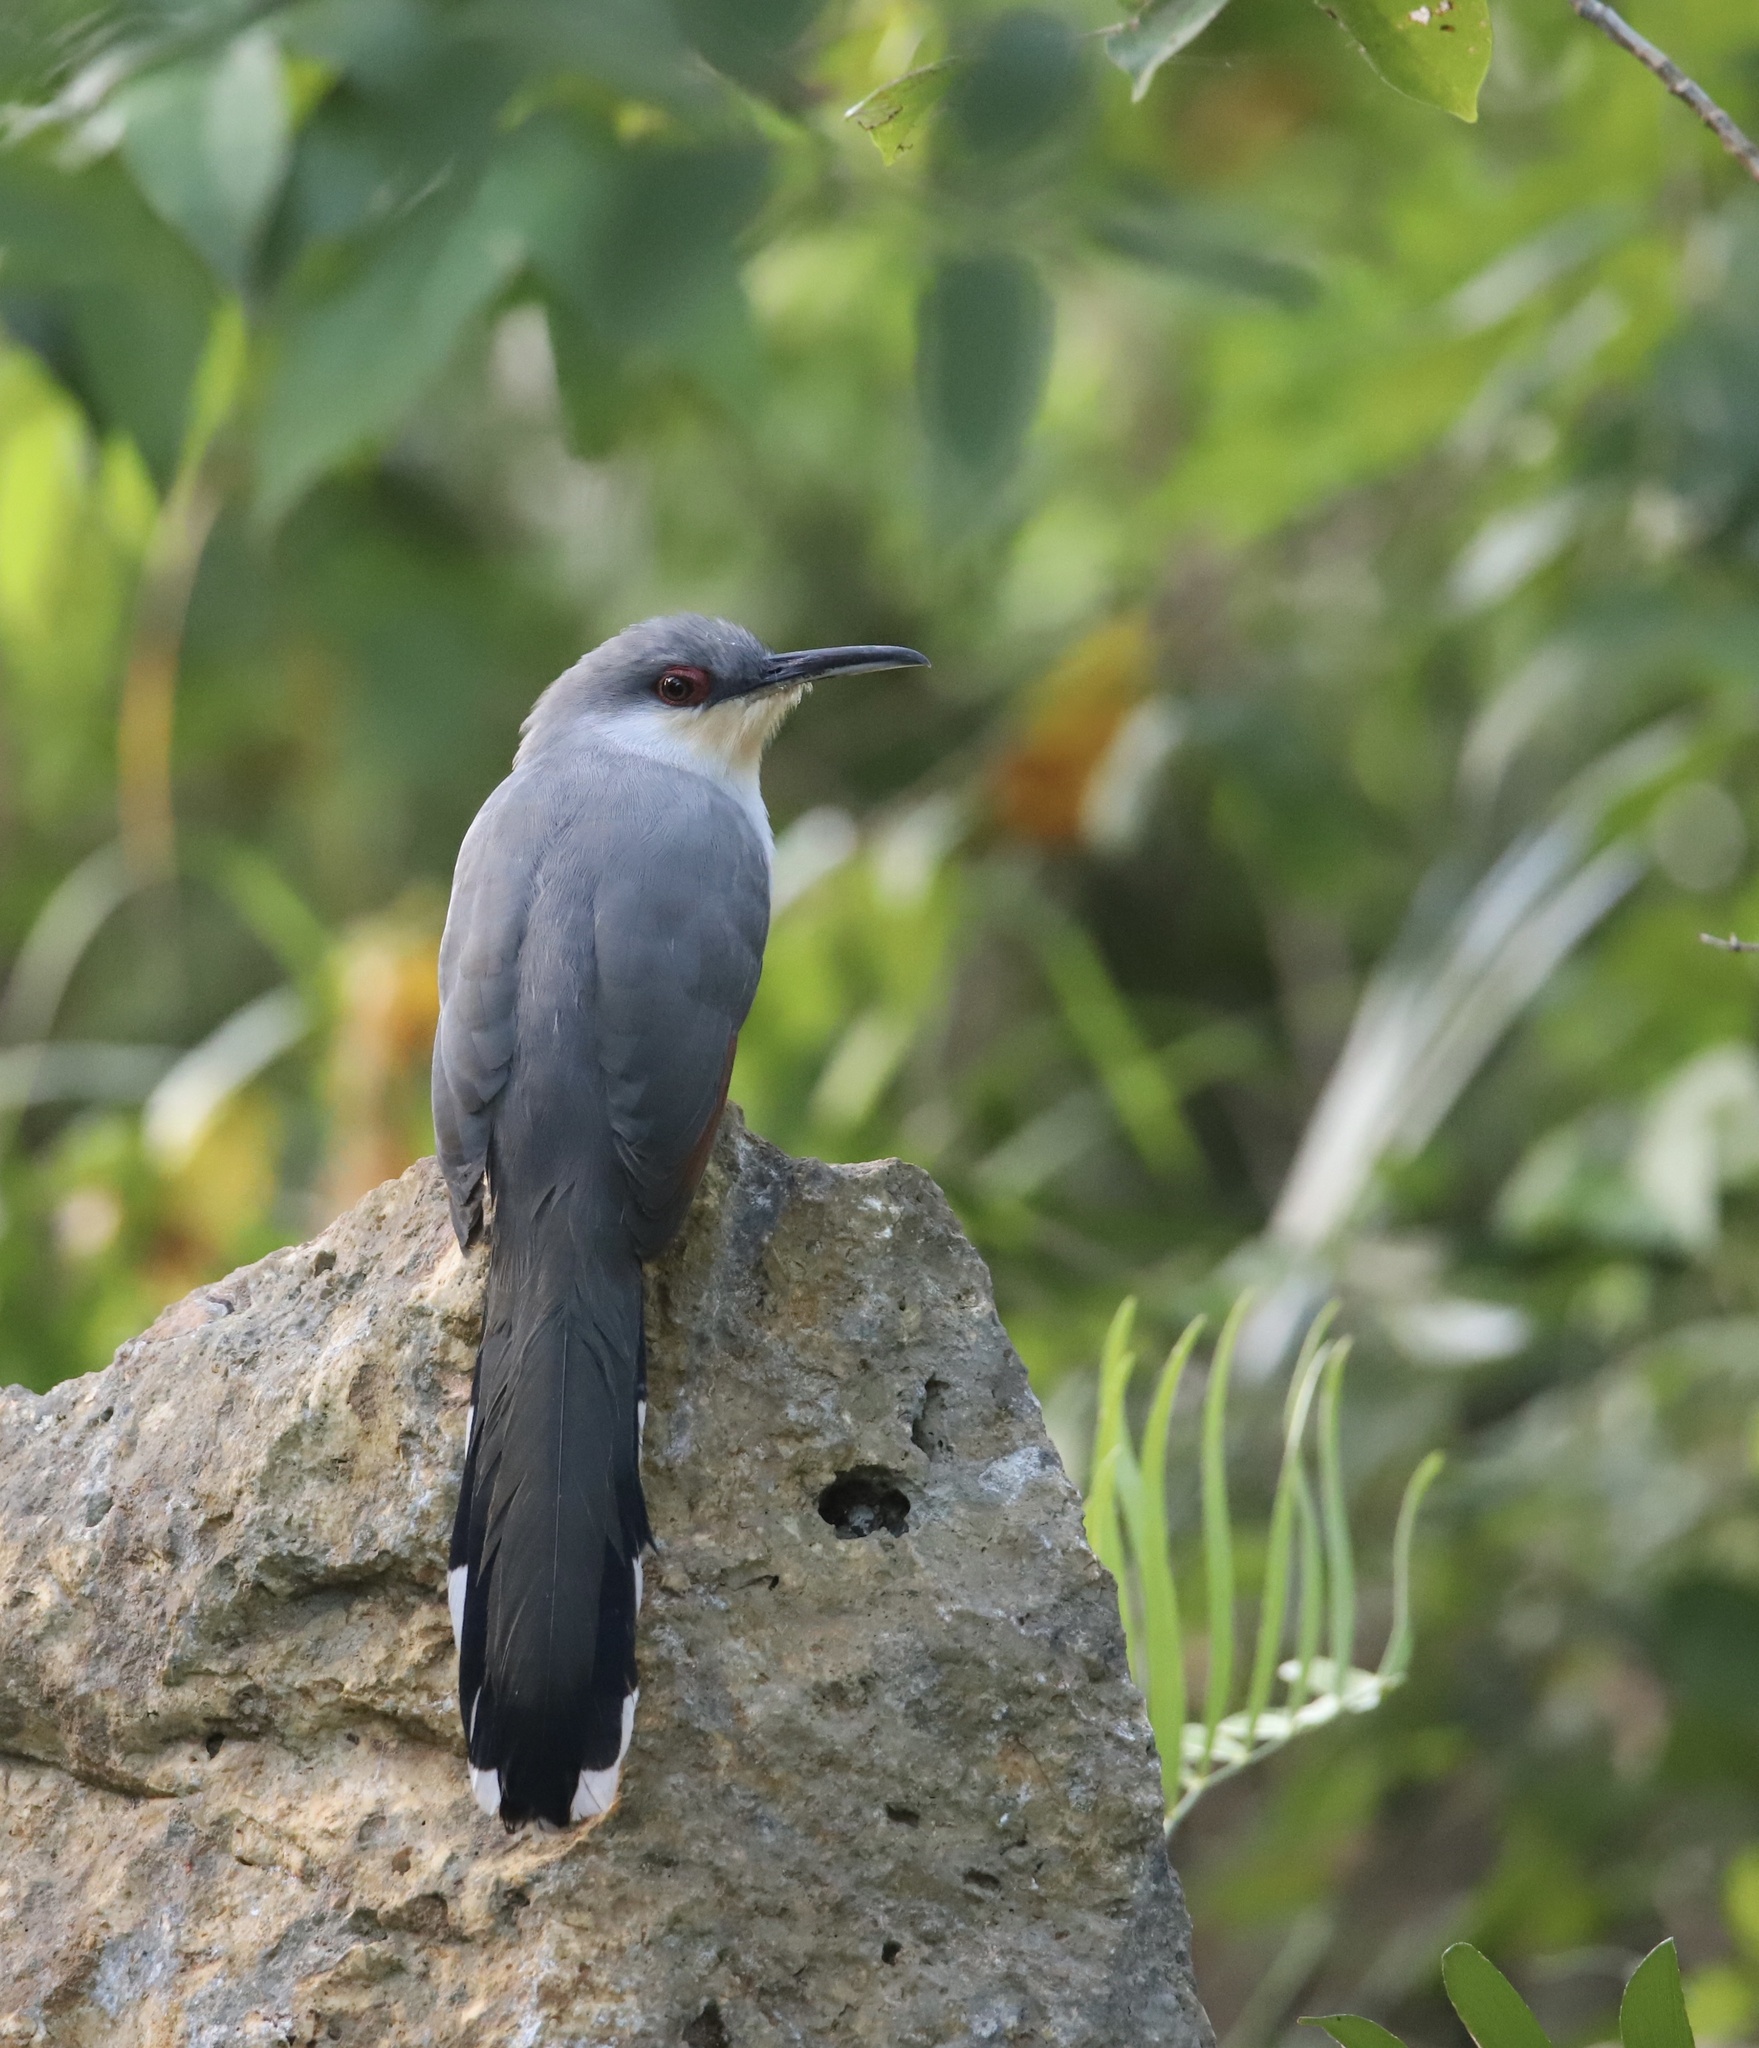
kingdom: Animalia
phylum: Chordata
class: Aves
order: Cuculiformes
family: Cuculidae
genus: Saurothera
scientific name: Saurothera longirostris
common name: Hispaniolan lizard-cuckoo
